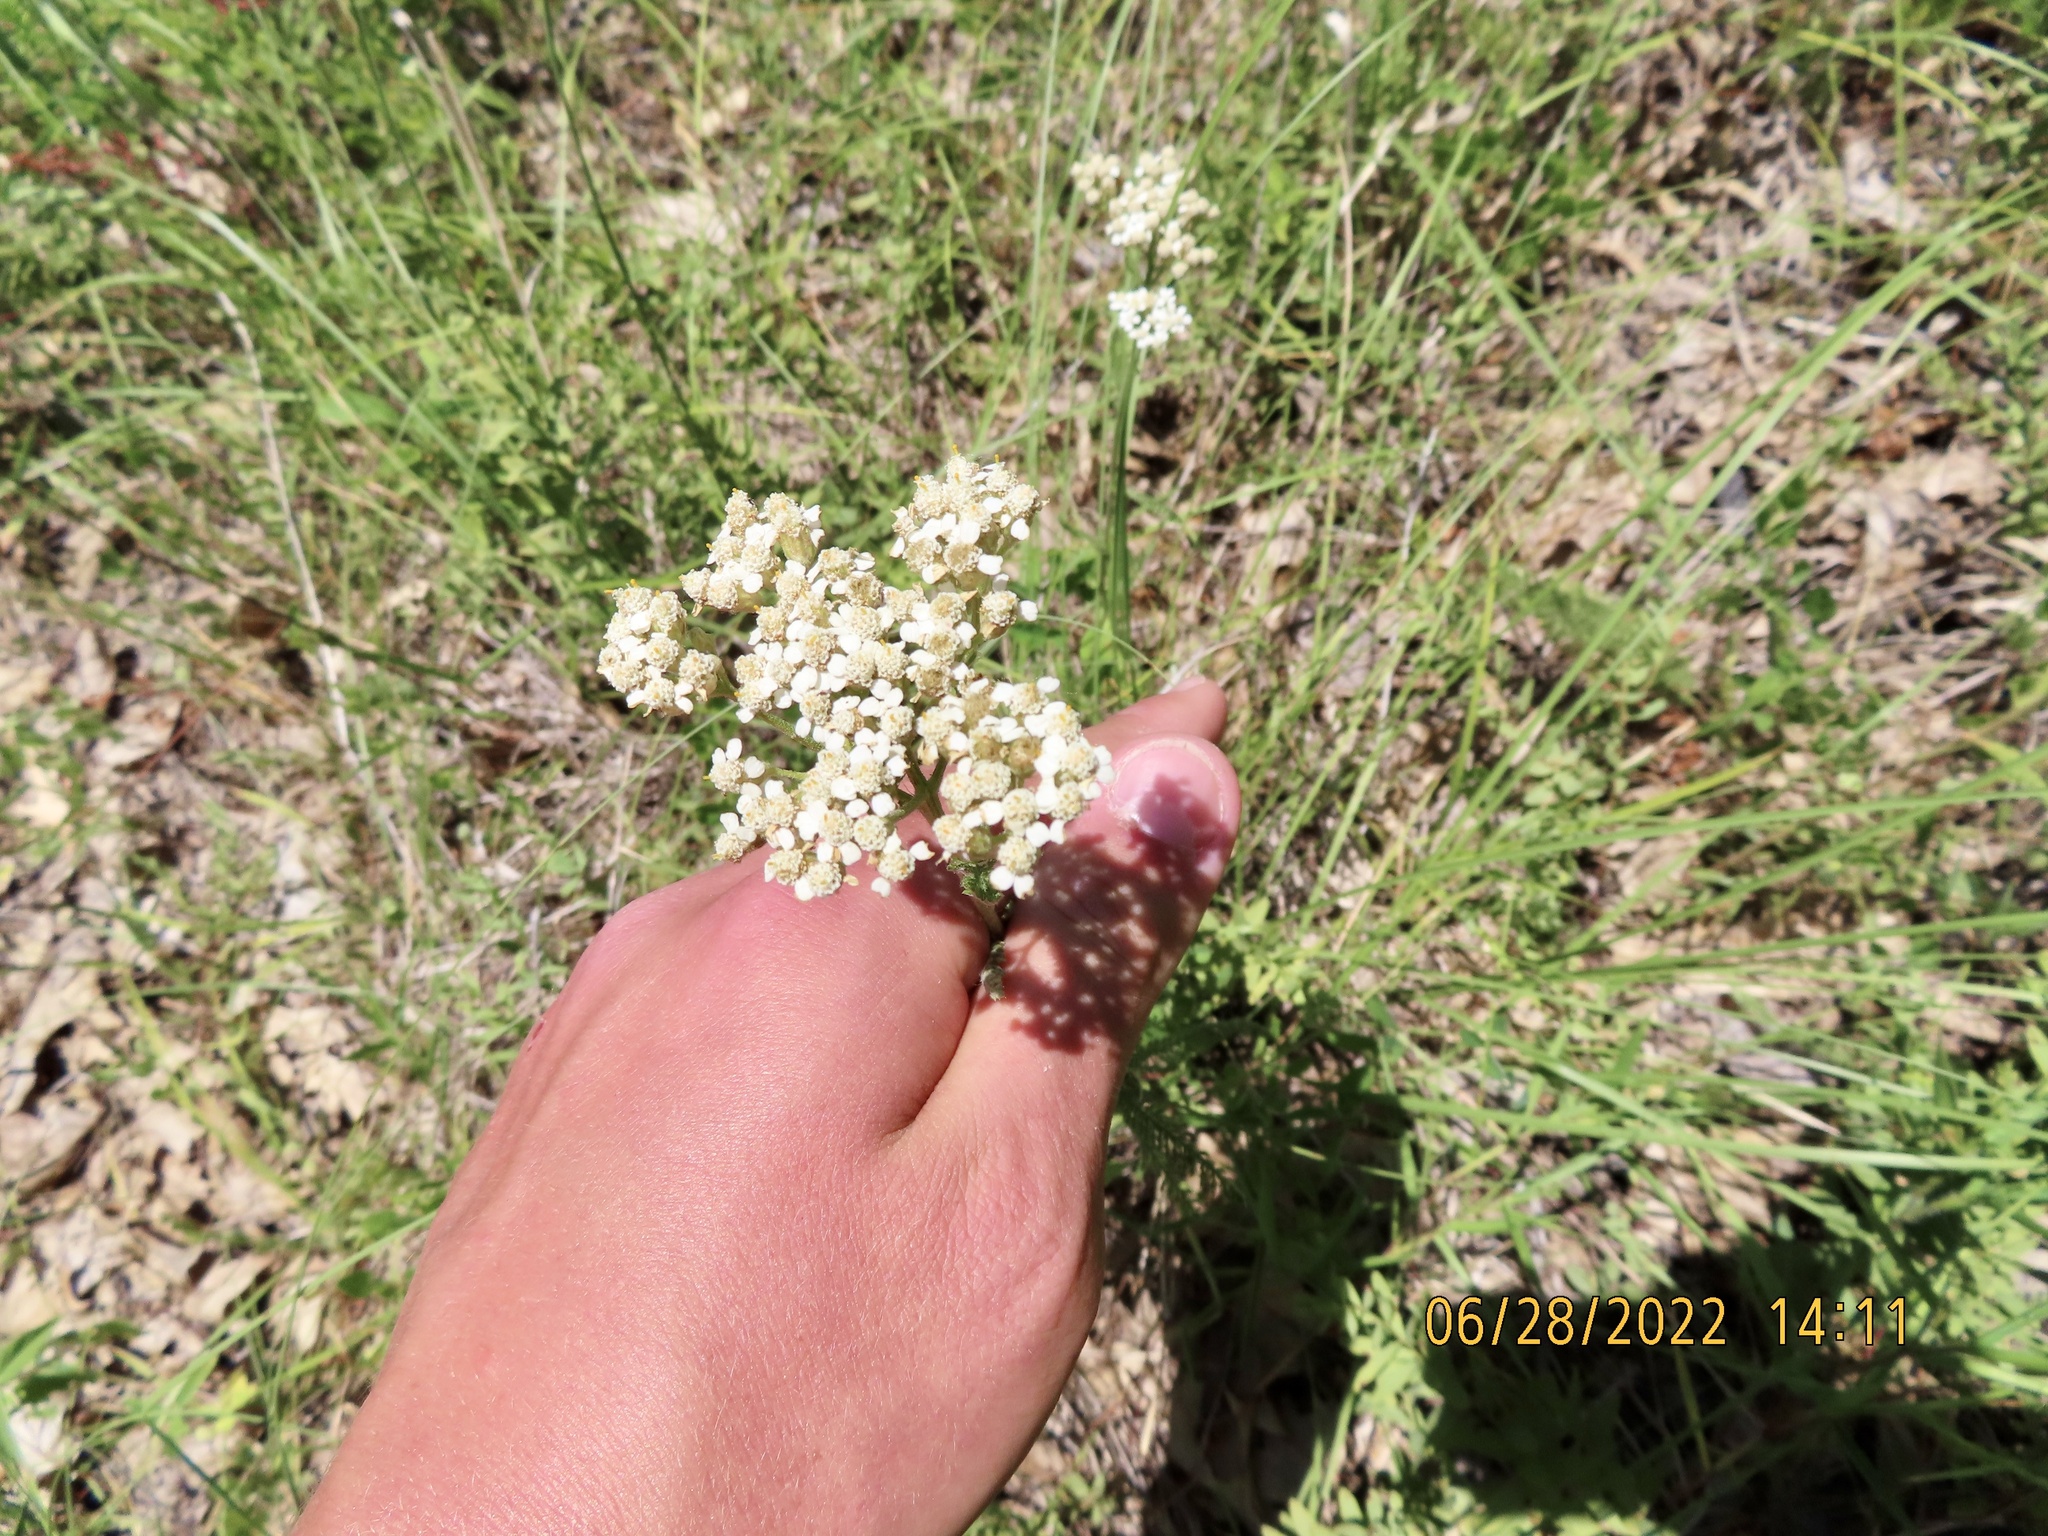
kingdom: Plantae
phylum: Tracheophyta
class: Magnoliopsida
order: Asterales
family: Asteraceae
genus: Achillea
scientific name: Achillea millefolium
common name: Yarrow
